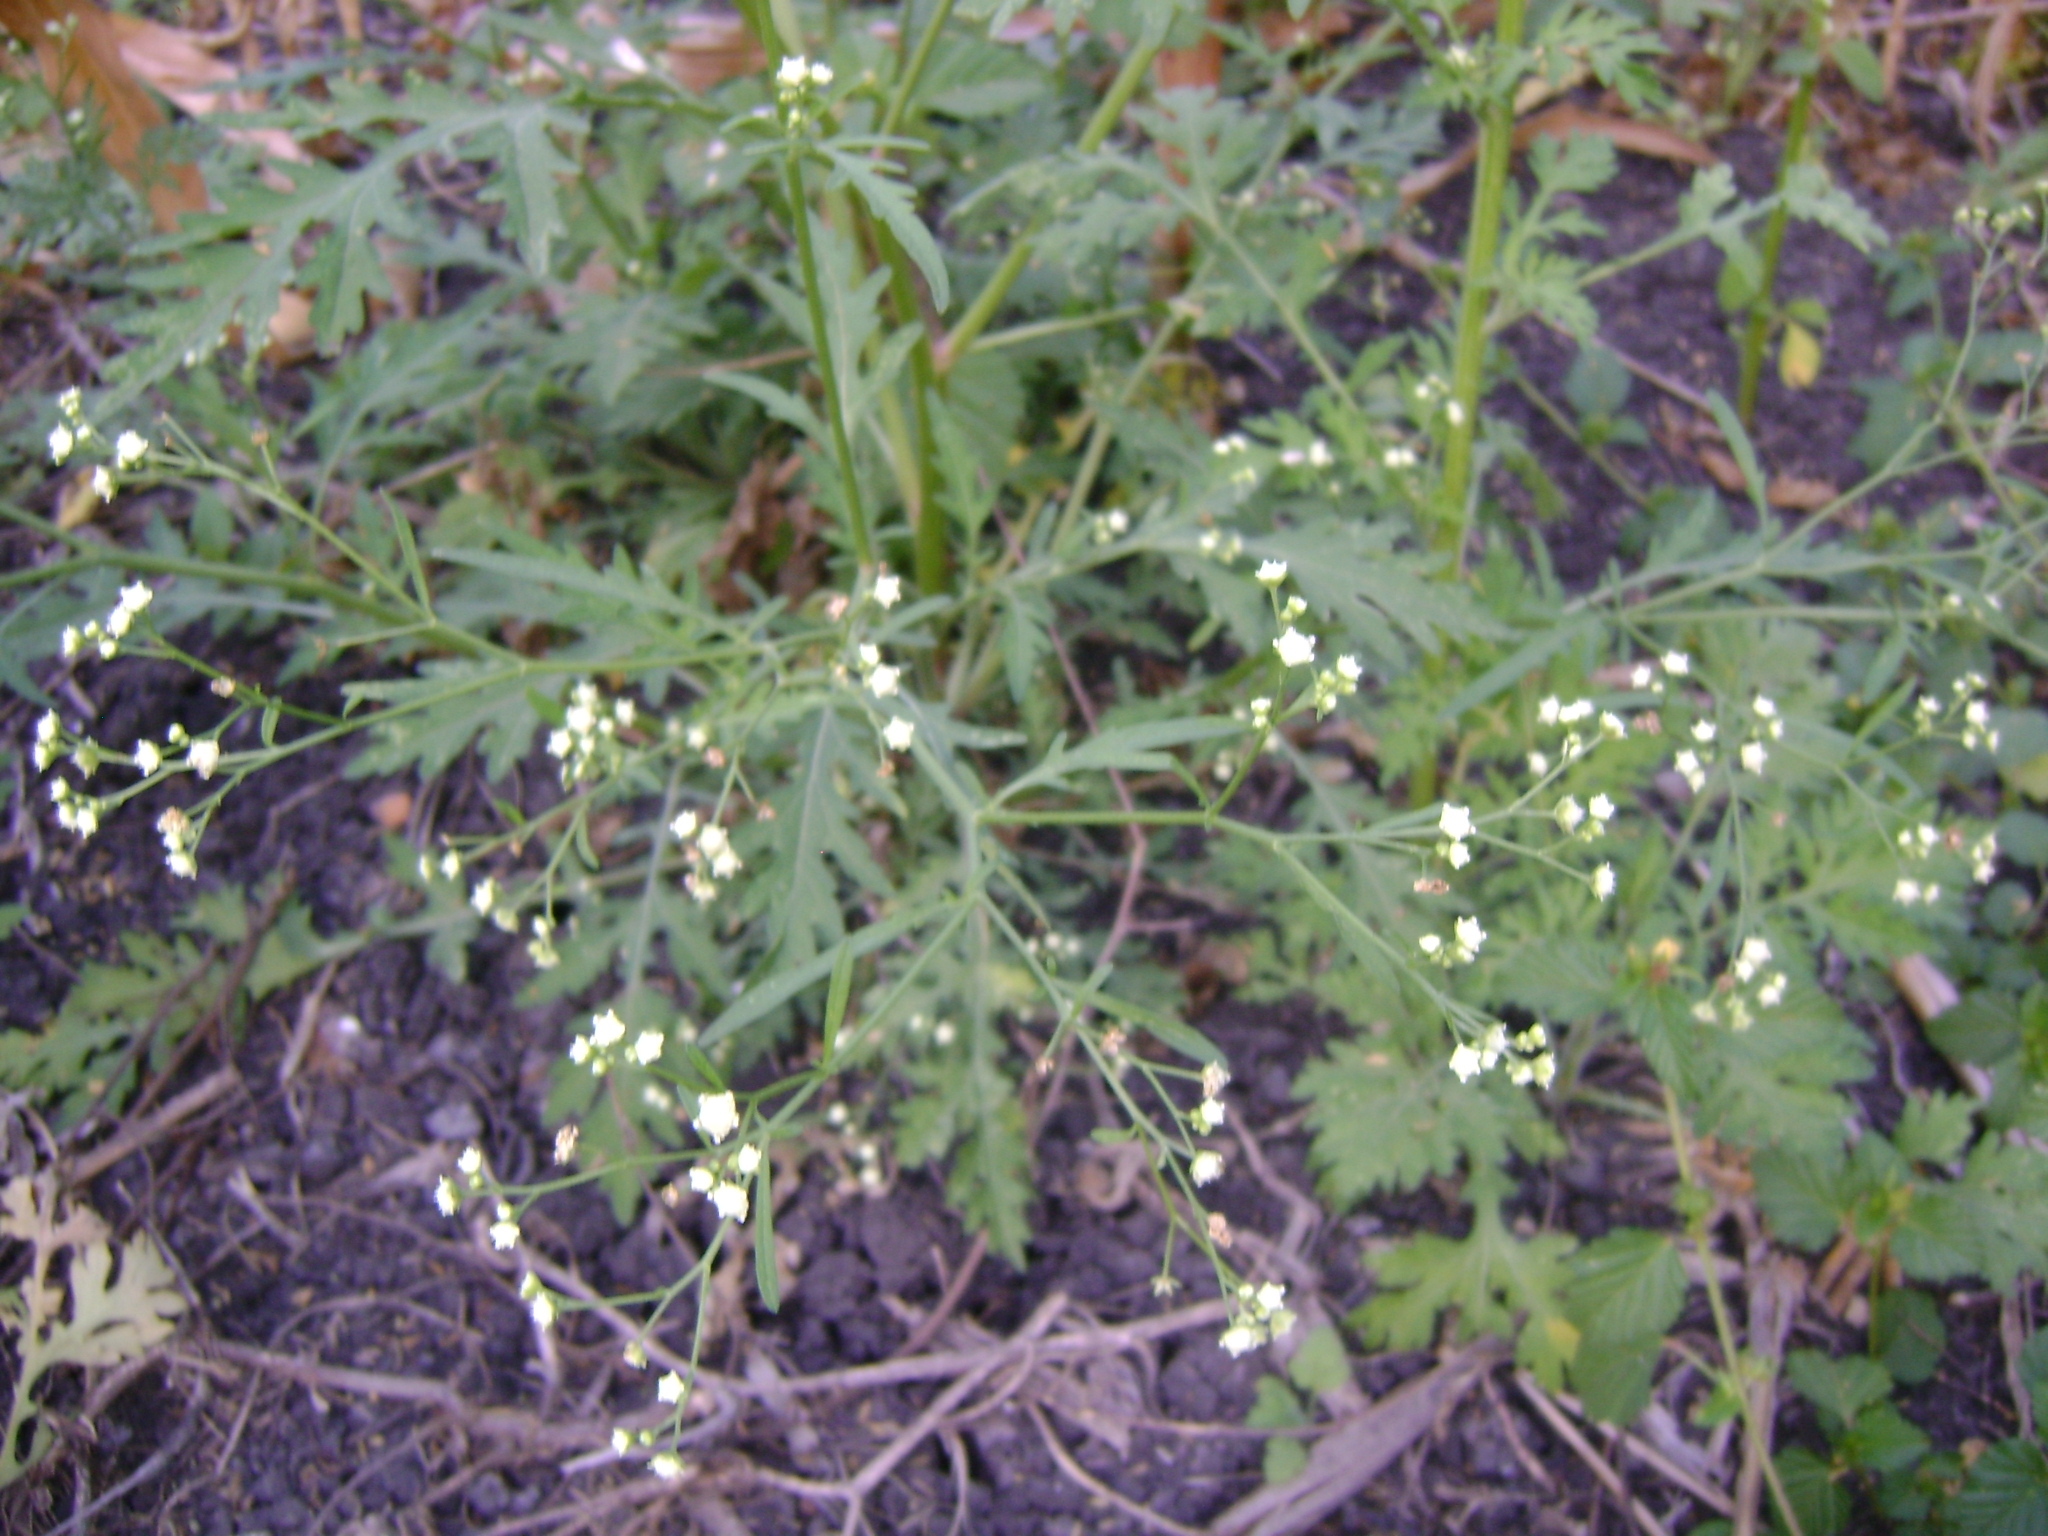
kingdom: Plantae
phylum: Tracheophyta
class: Magnoliopsida
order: Asterales
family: Asteraceae
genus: Parthenium
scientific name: Parthenium hysterophorus
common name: Santa maria feverfew
